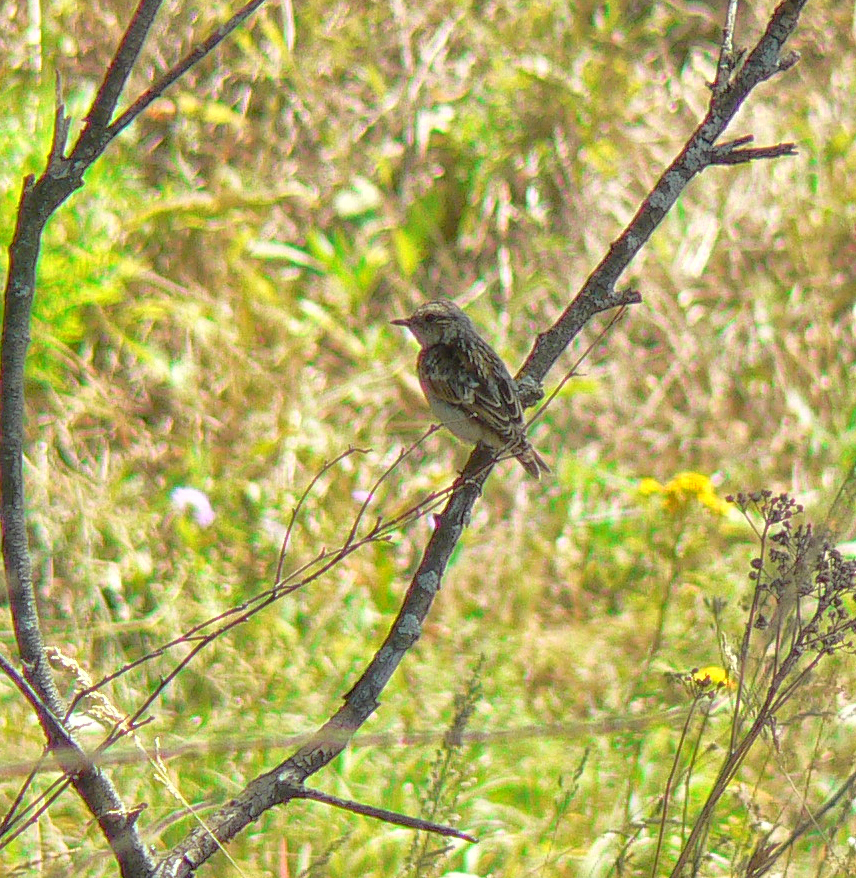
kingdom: Animalia
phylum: Chordata
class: Aves
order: Passeriformes
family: Muscicapidae
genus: Saxicola
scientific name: Saxicola rubetra
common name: Whinchat
